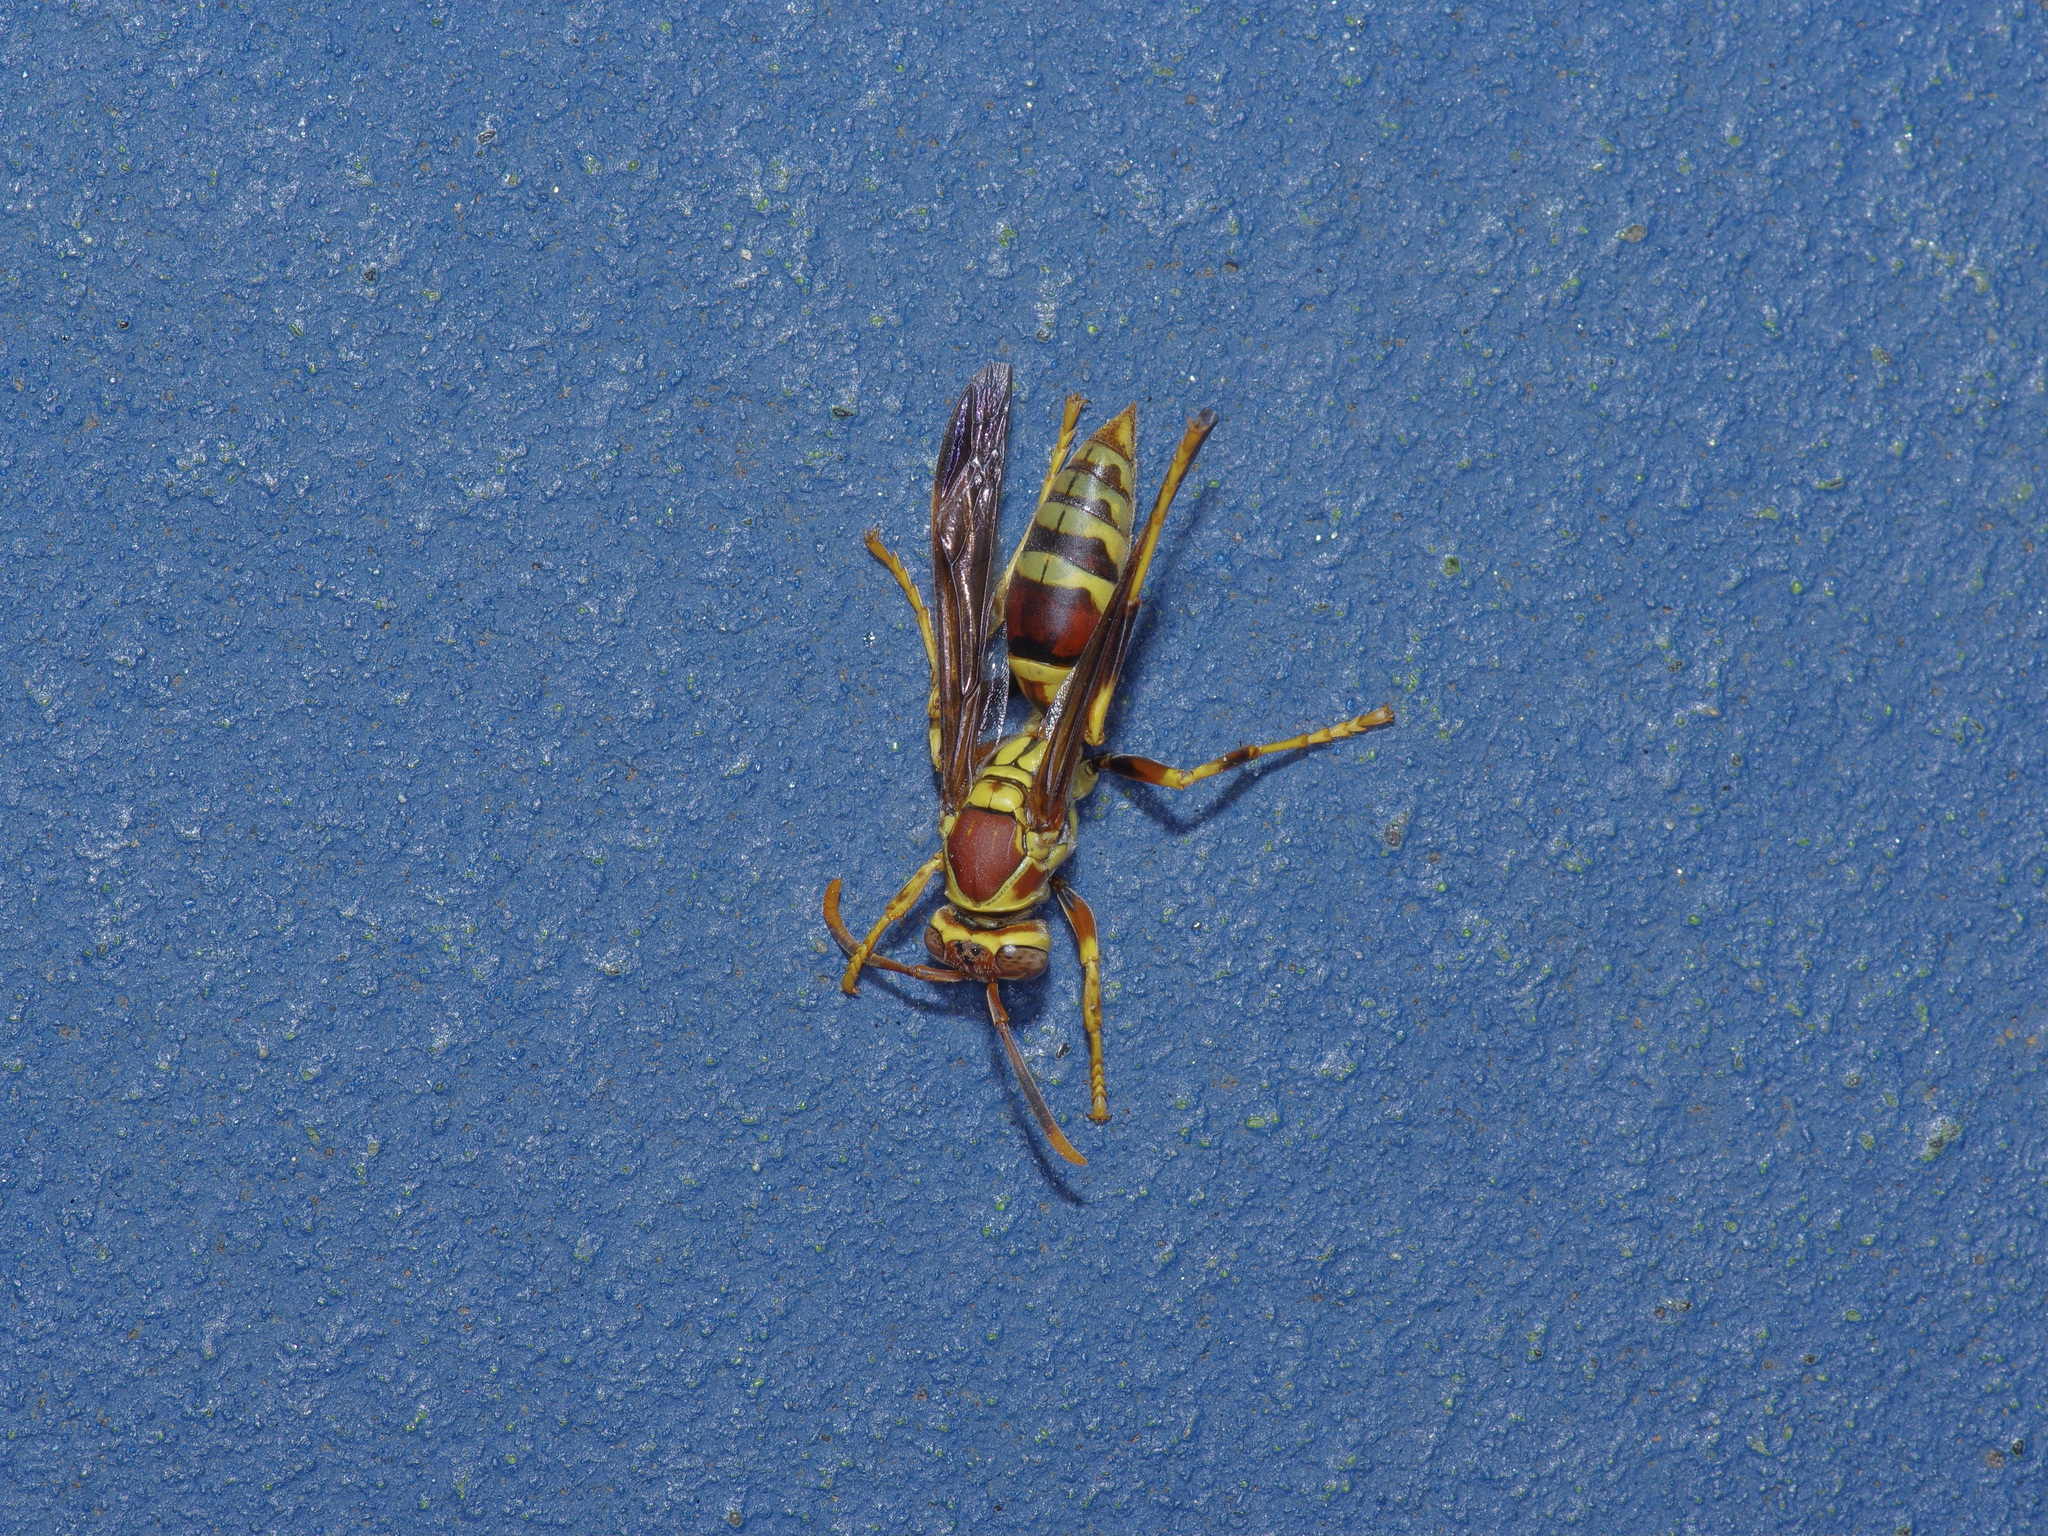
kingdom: Animalia
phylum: Arthropoda
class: Insecta
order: Hymenoptera
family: Eumenidae
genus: Polistes
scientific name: Polistes exclamans
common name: Paper wasp
